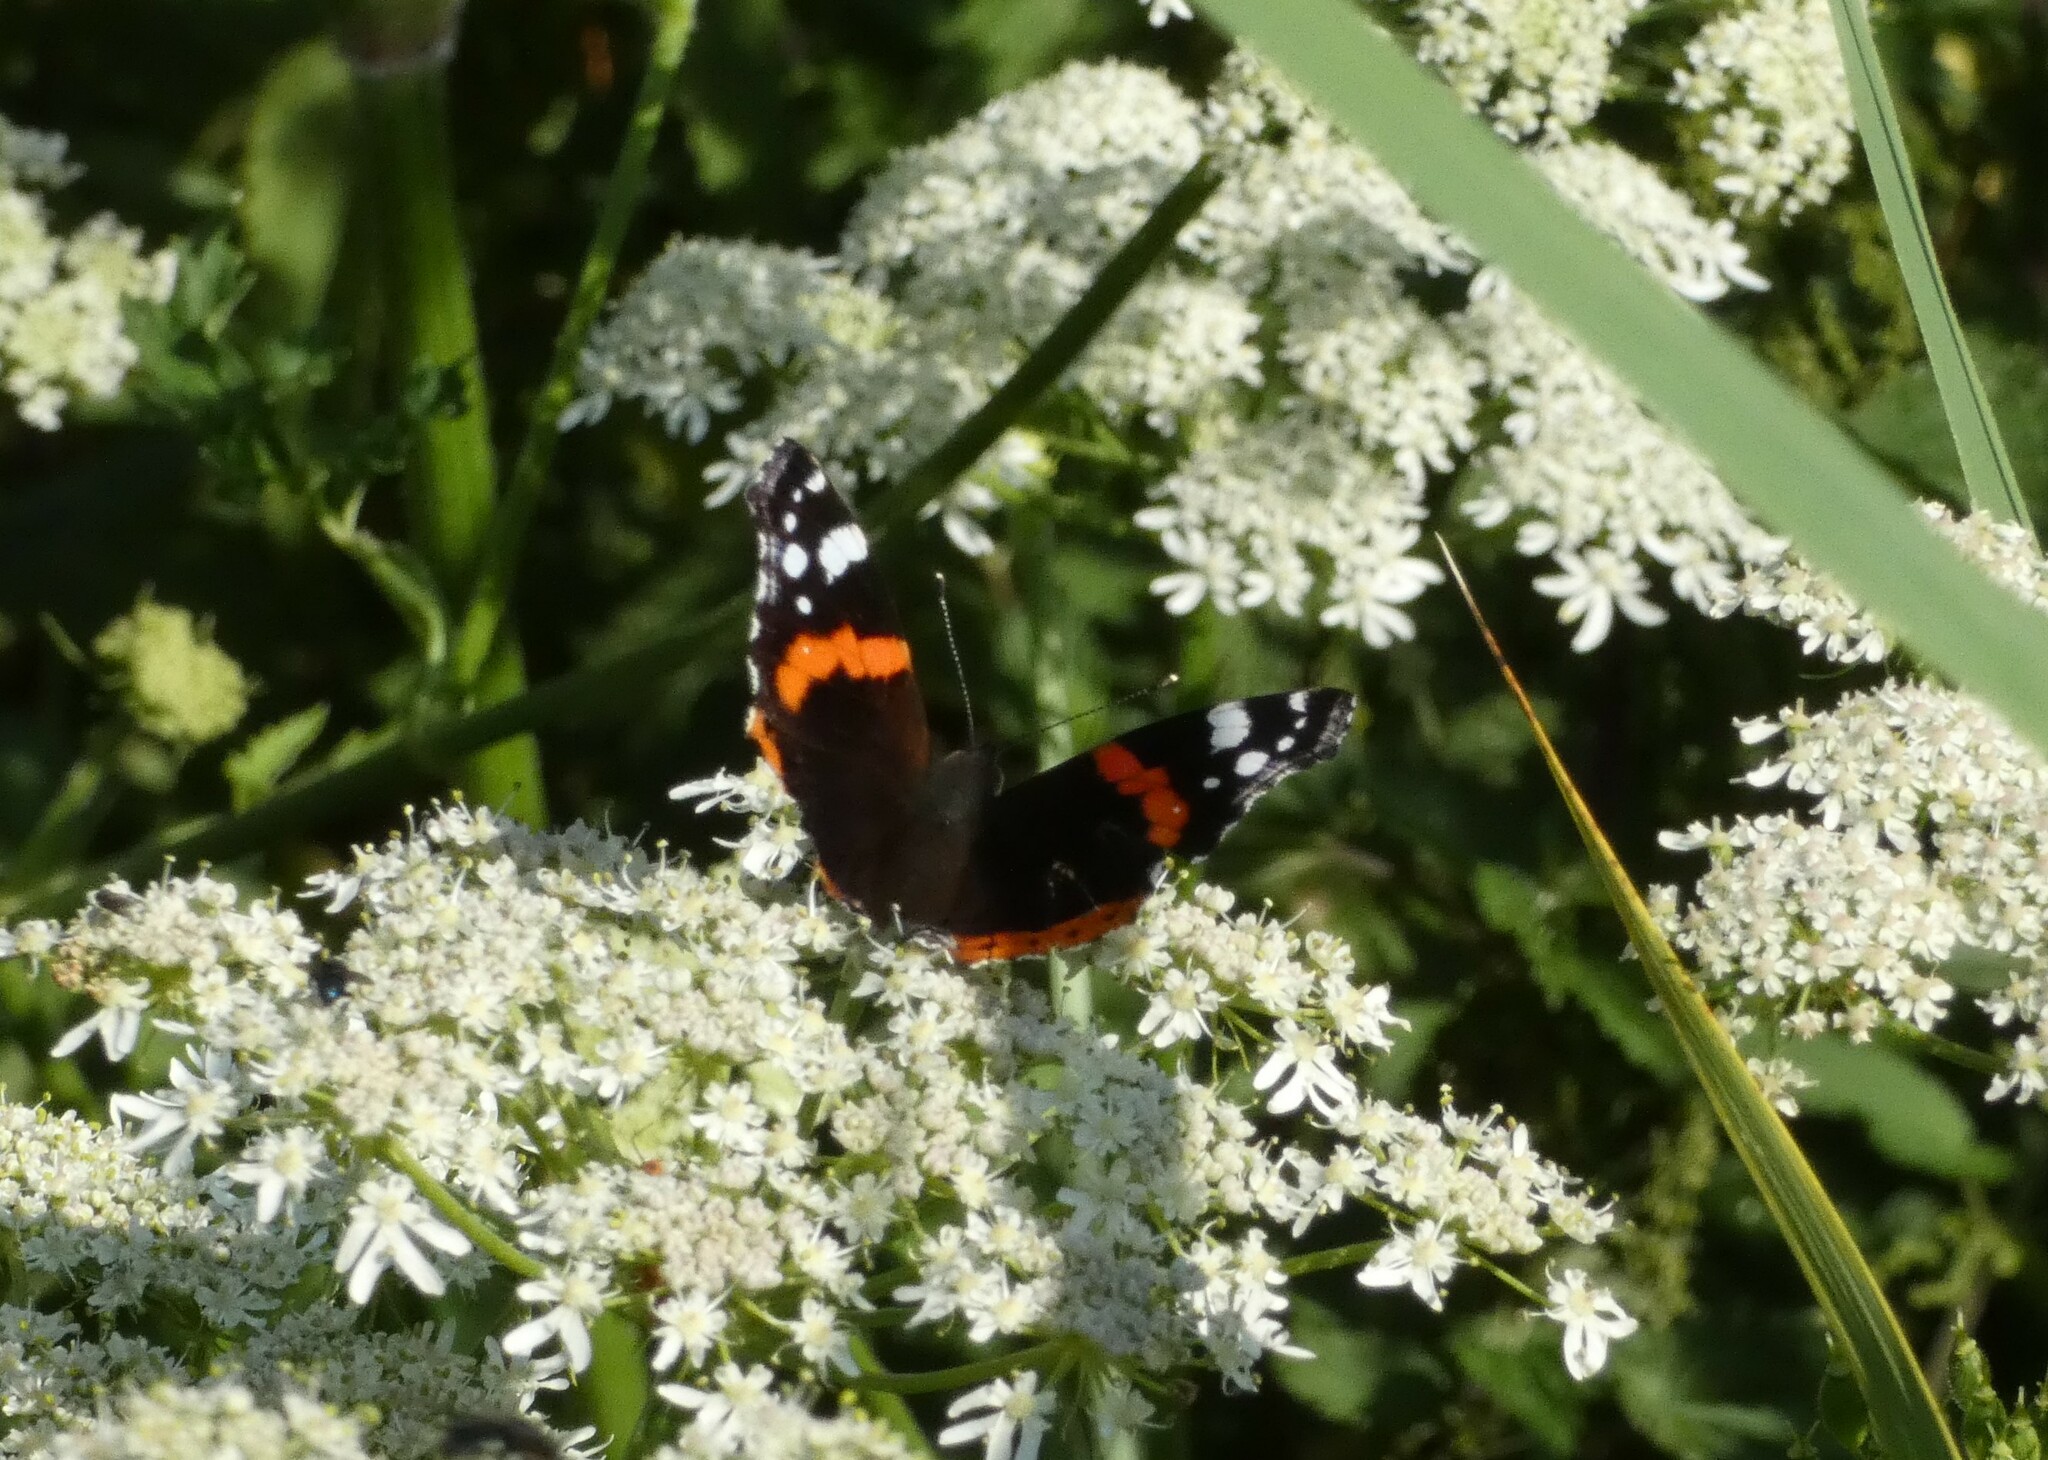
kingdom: Animalia
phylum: Arthropoda
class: Insecta
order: Lepidoptera
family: Nymphalidae
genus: Vanessa
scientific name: Vanessa atalanta
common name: Red admiral
